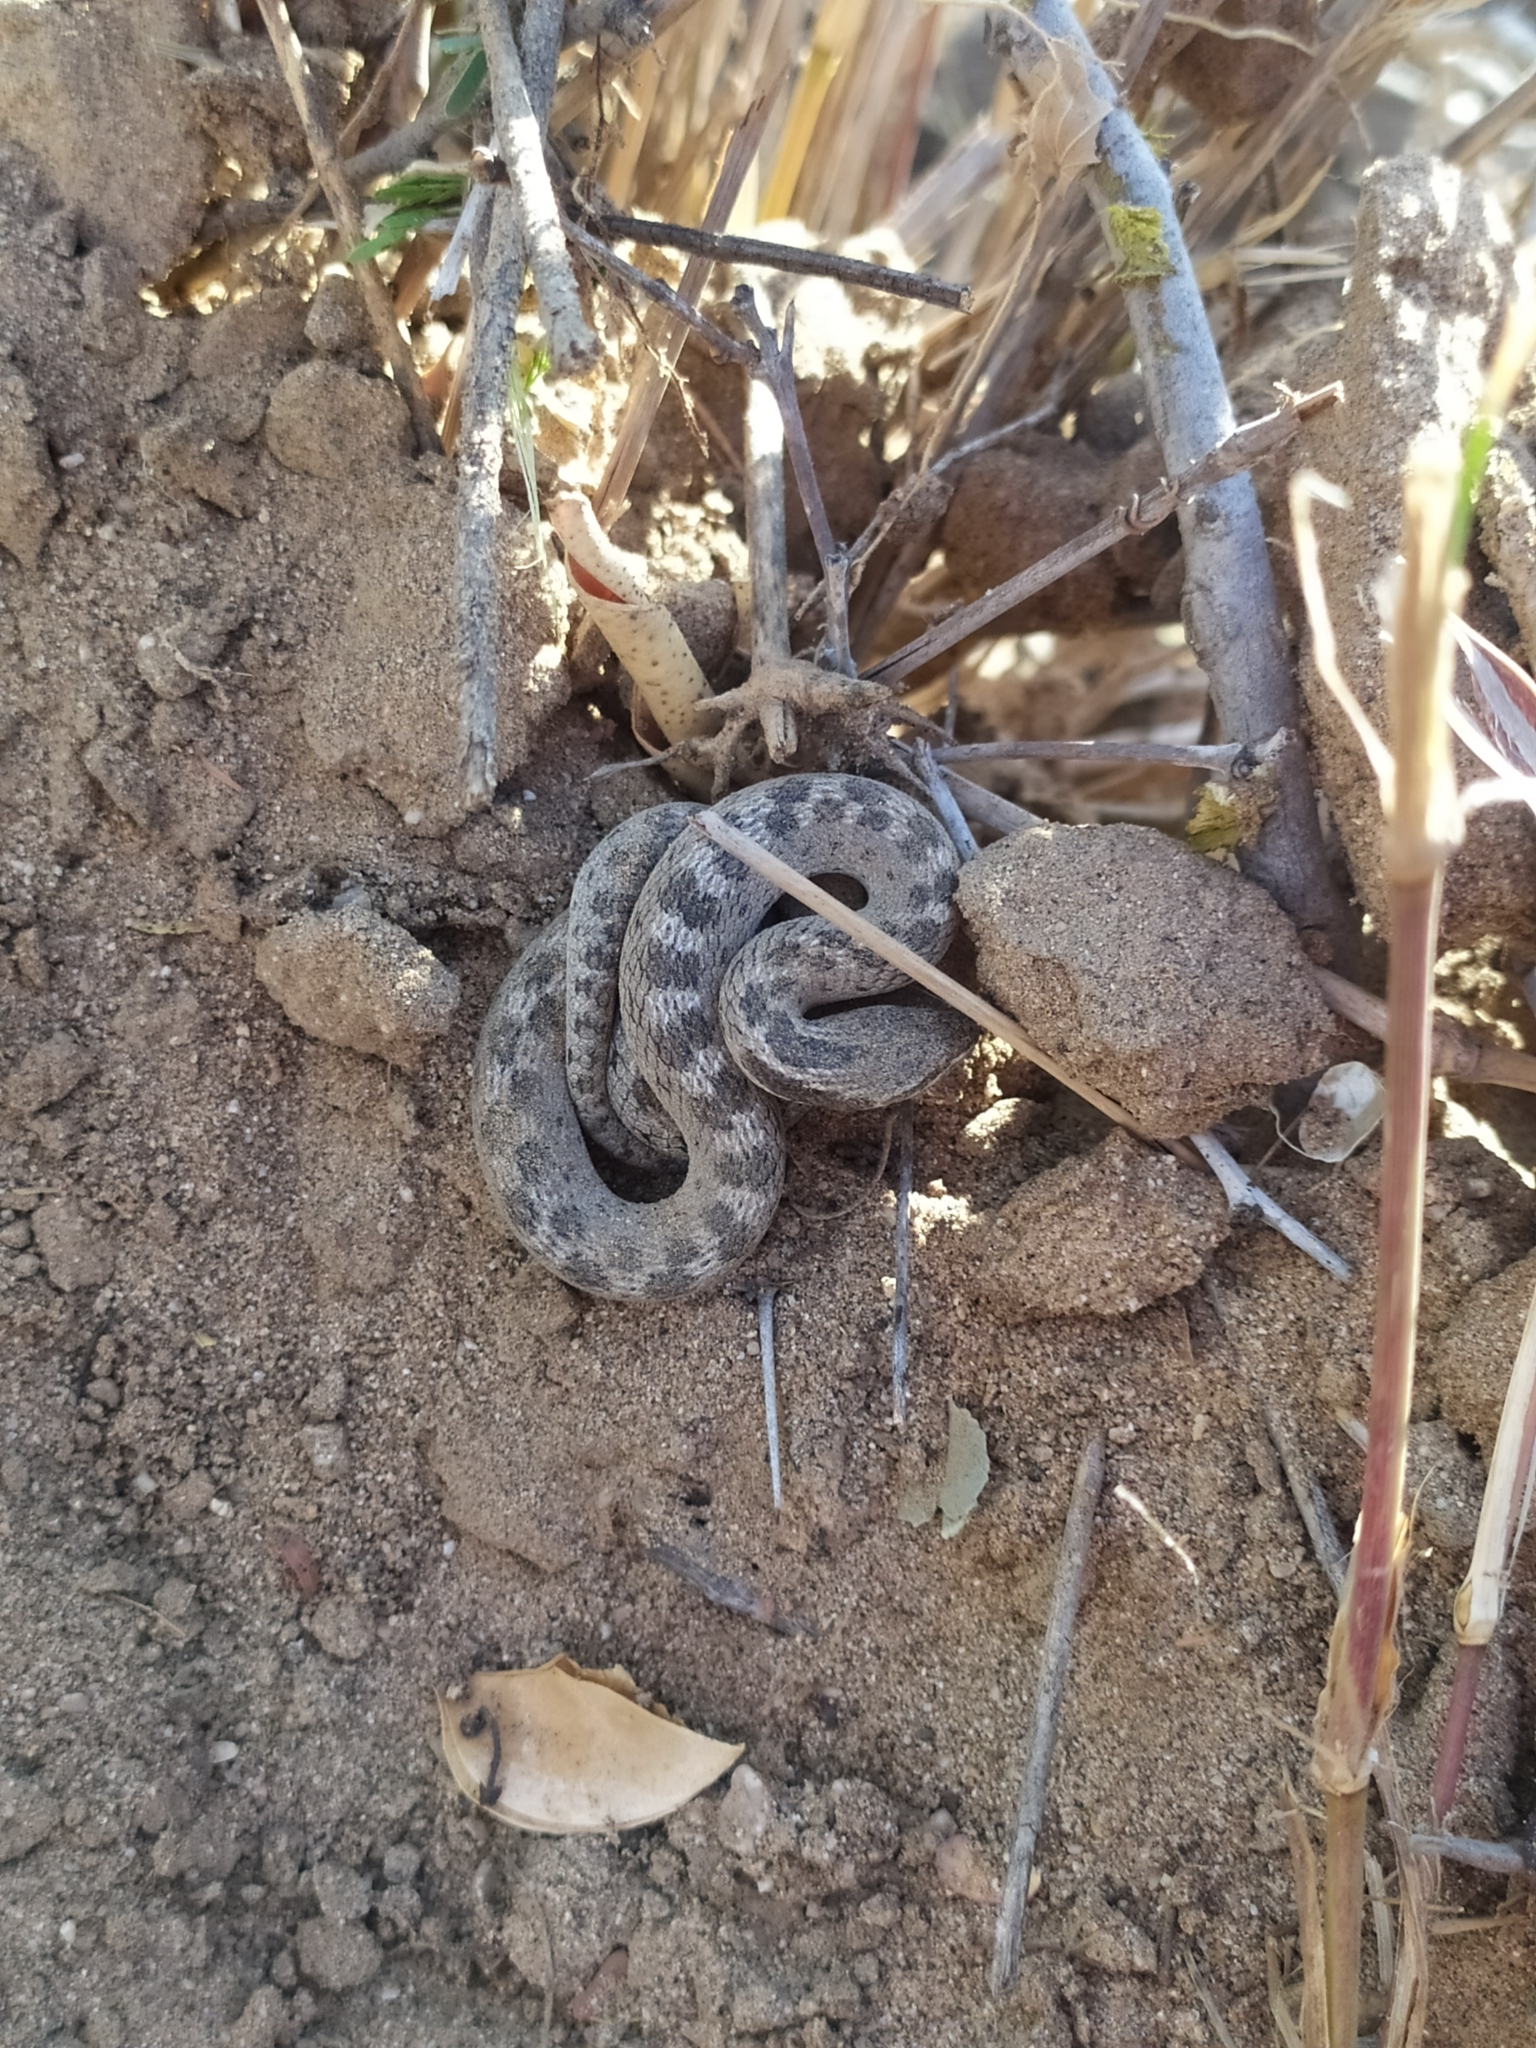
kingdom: Animalia
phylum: Chordata
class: Squamata
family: Colubridae
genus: Hypsiglena
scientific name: Hypsiglena ochrorhynchus
